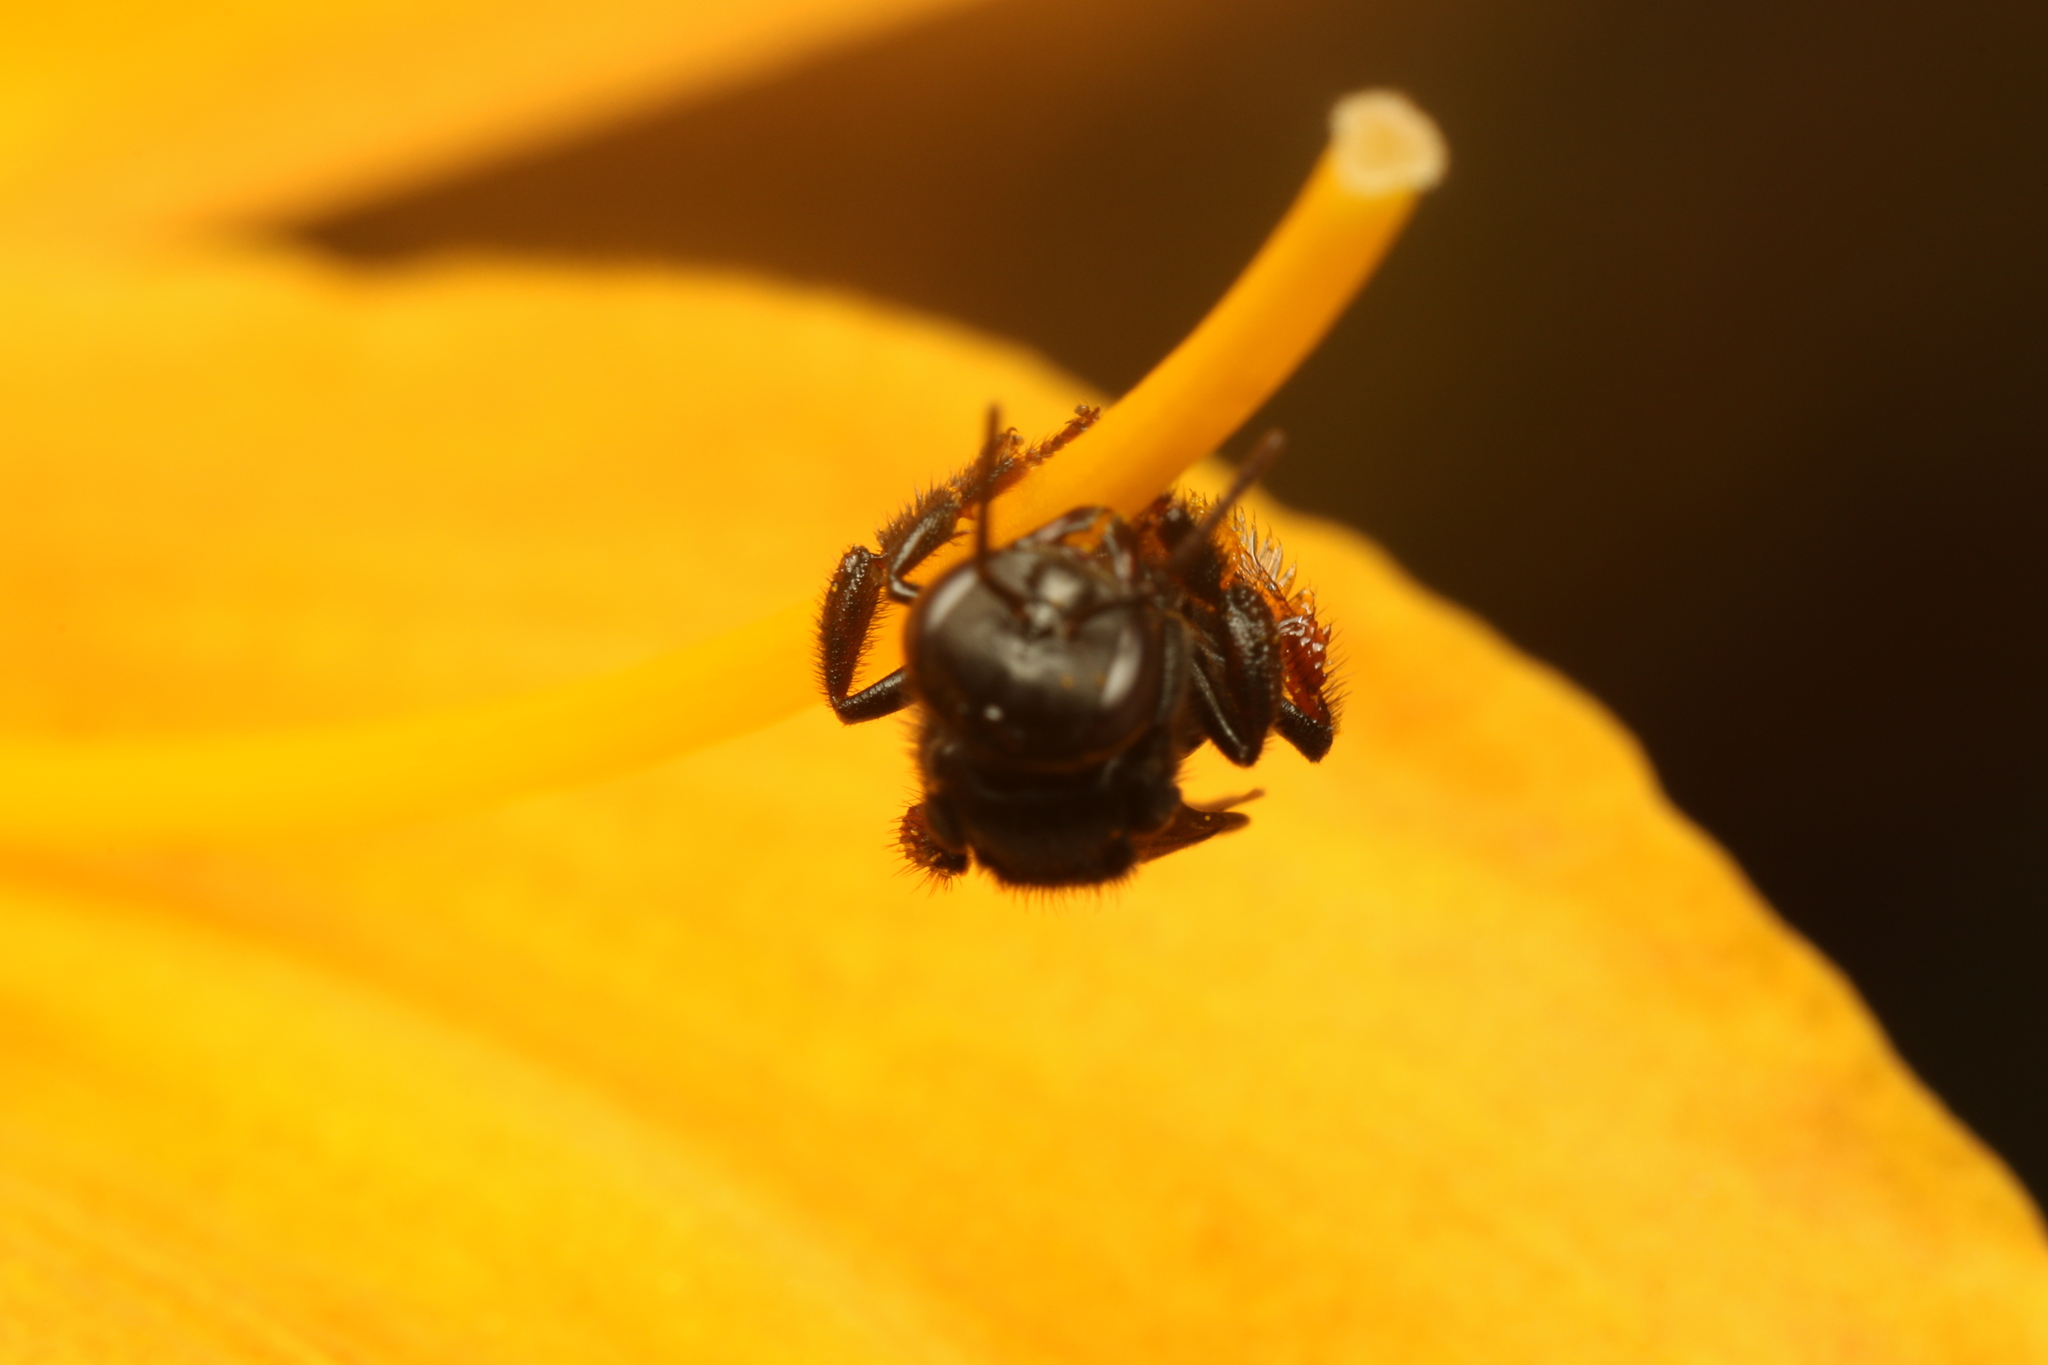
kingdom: Animalia
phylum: Arthropoda
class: Insecta
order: Hymenoptera
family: Apidae
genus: Trigona
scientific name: Trigona spinipes
